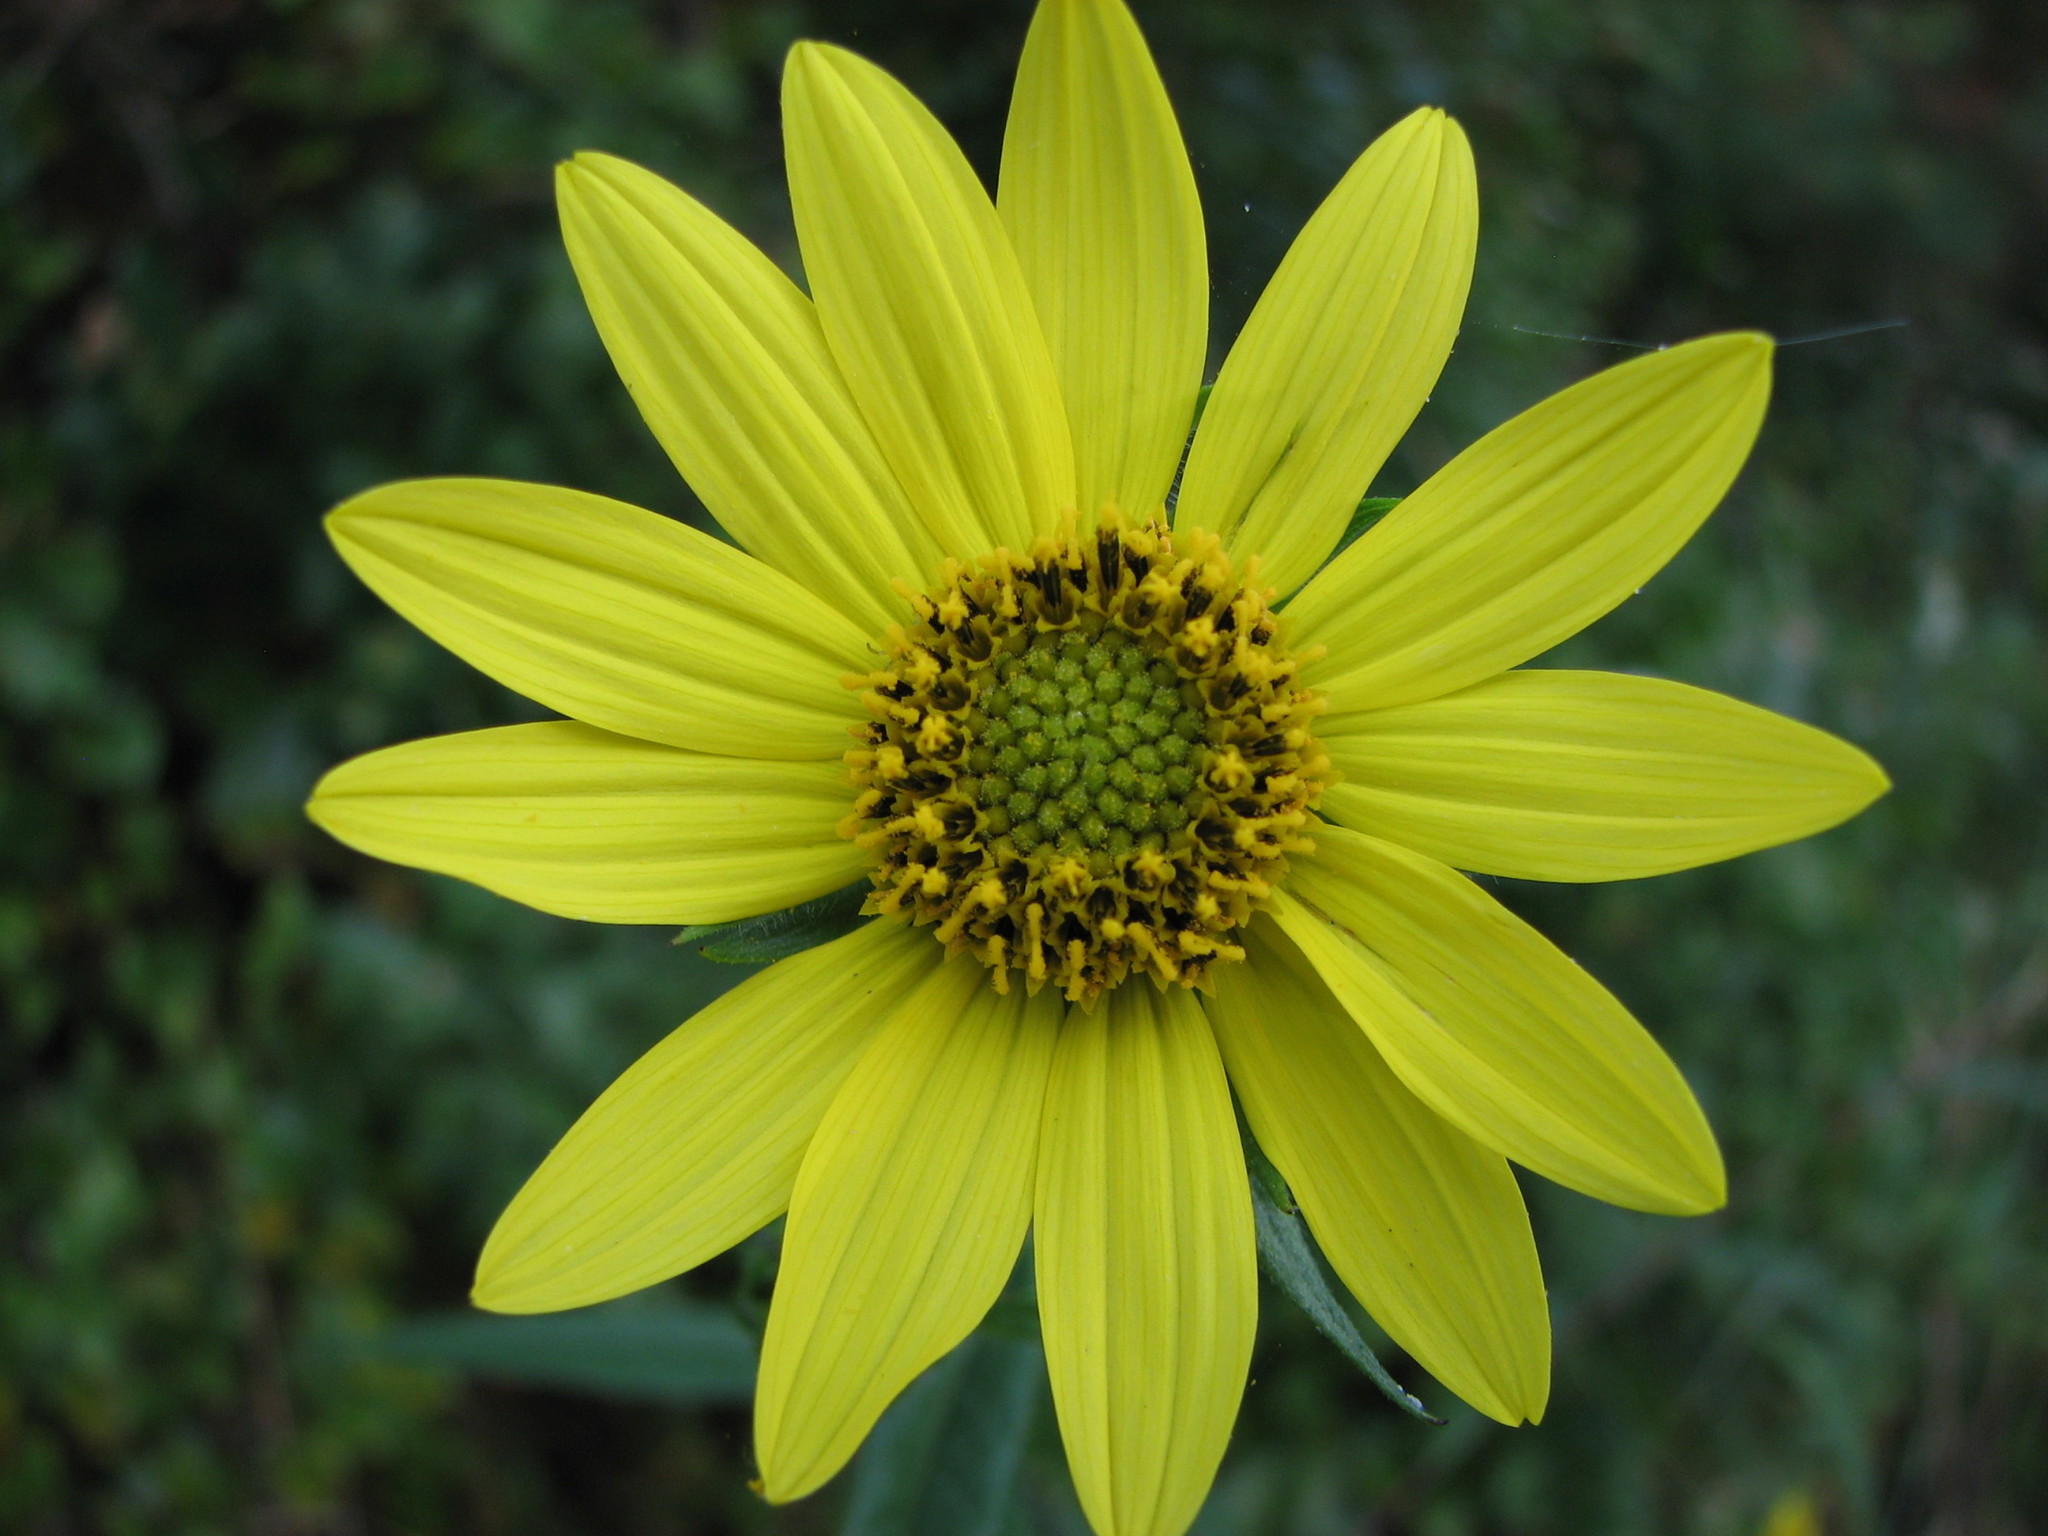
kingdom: Plantae
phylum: Tracheophyta
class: Magnoliopsida
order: Asterales
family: Asteraceae
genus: Helianthus
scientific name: Helianthus giganteus
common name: Giant sunflower
